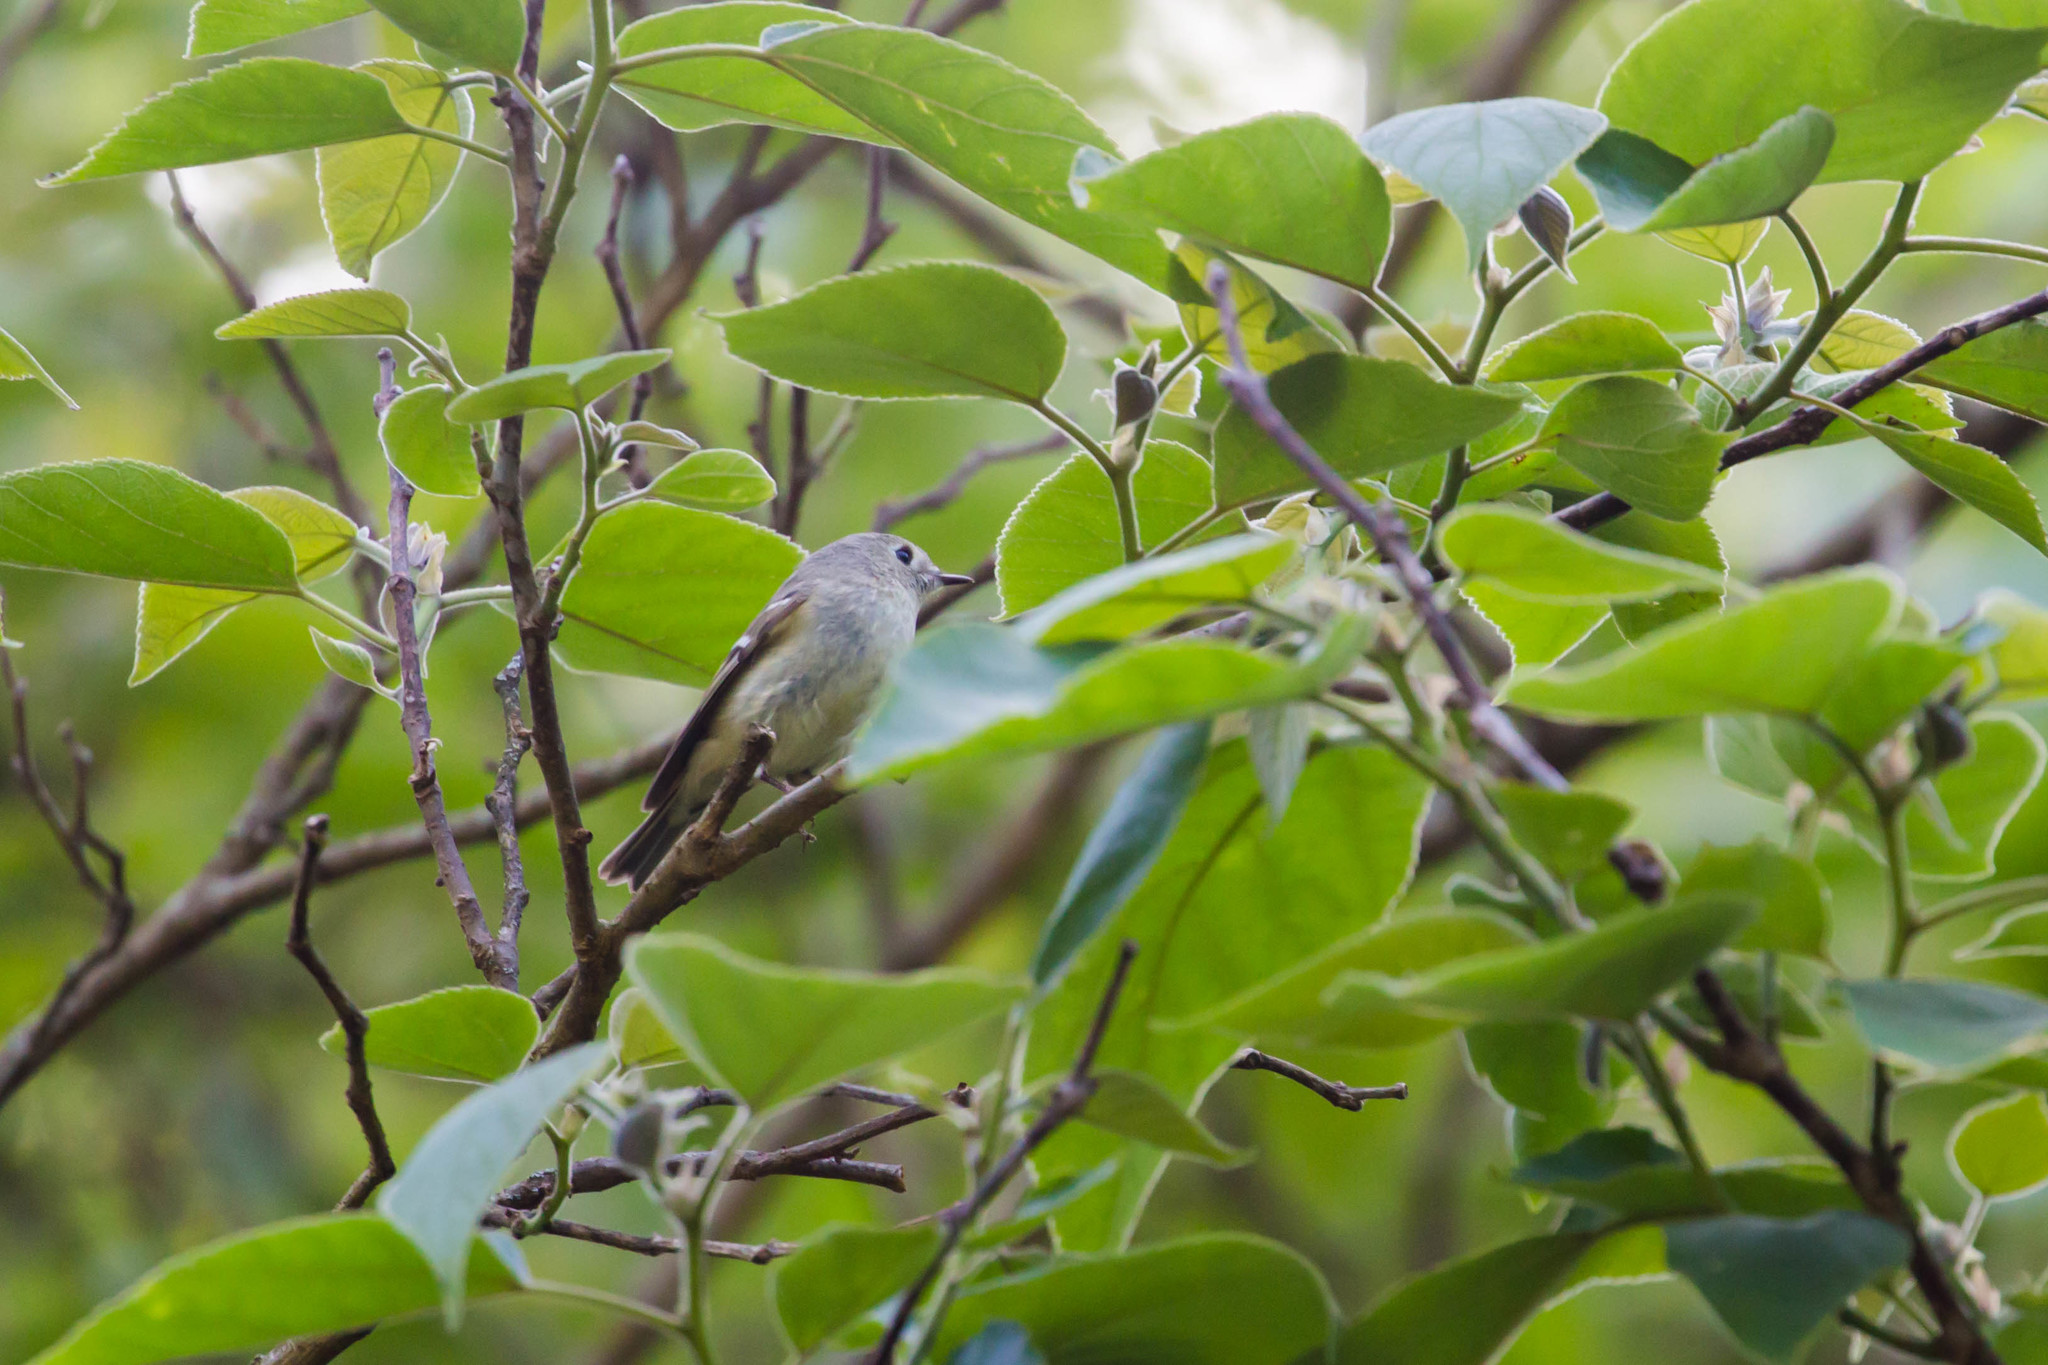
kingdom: Animalia
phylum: Chordata
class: Aves
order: Passeriformes
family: Regulidae
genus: Regulus
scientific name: Regulus calendula
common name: Ruby-crowned kinglet
